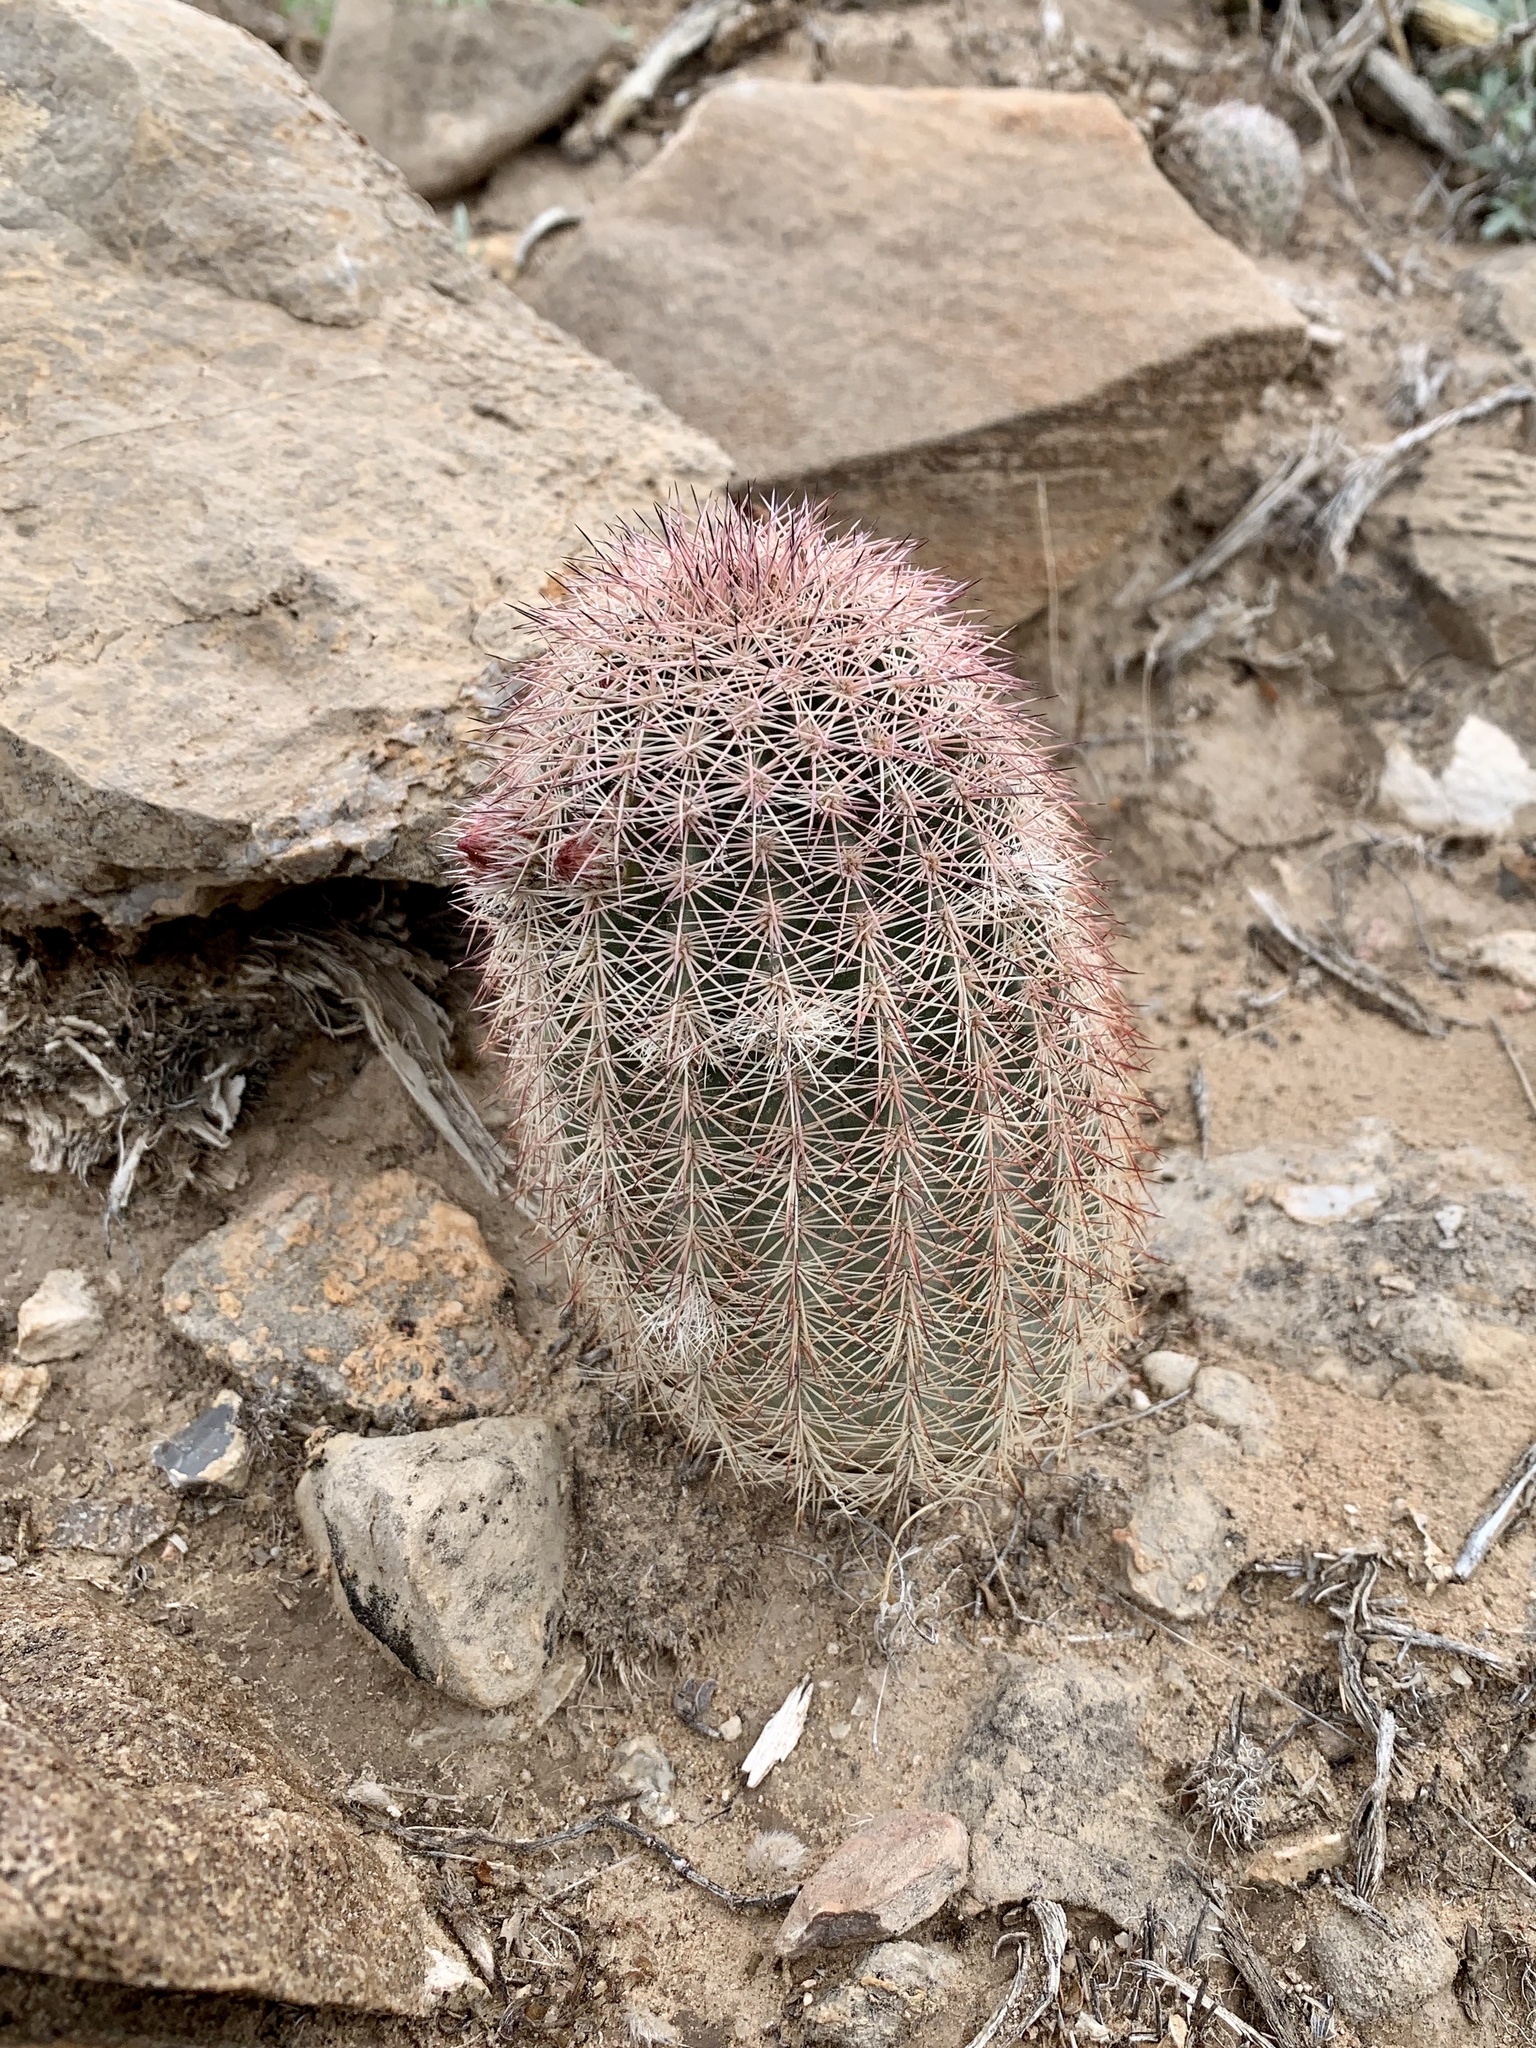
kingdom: Plantae
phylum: Tracheophyta
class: Magnoliopsida
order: Caryophyllales
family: Cactaceae
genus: Echinocereus
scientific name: Echinocereus dasyacanthus
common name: Spiny hedgehog cactus
